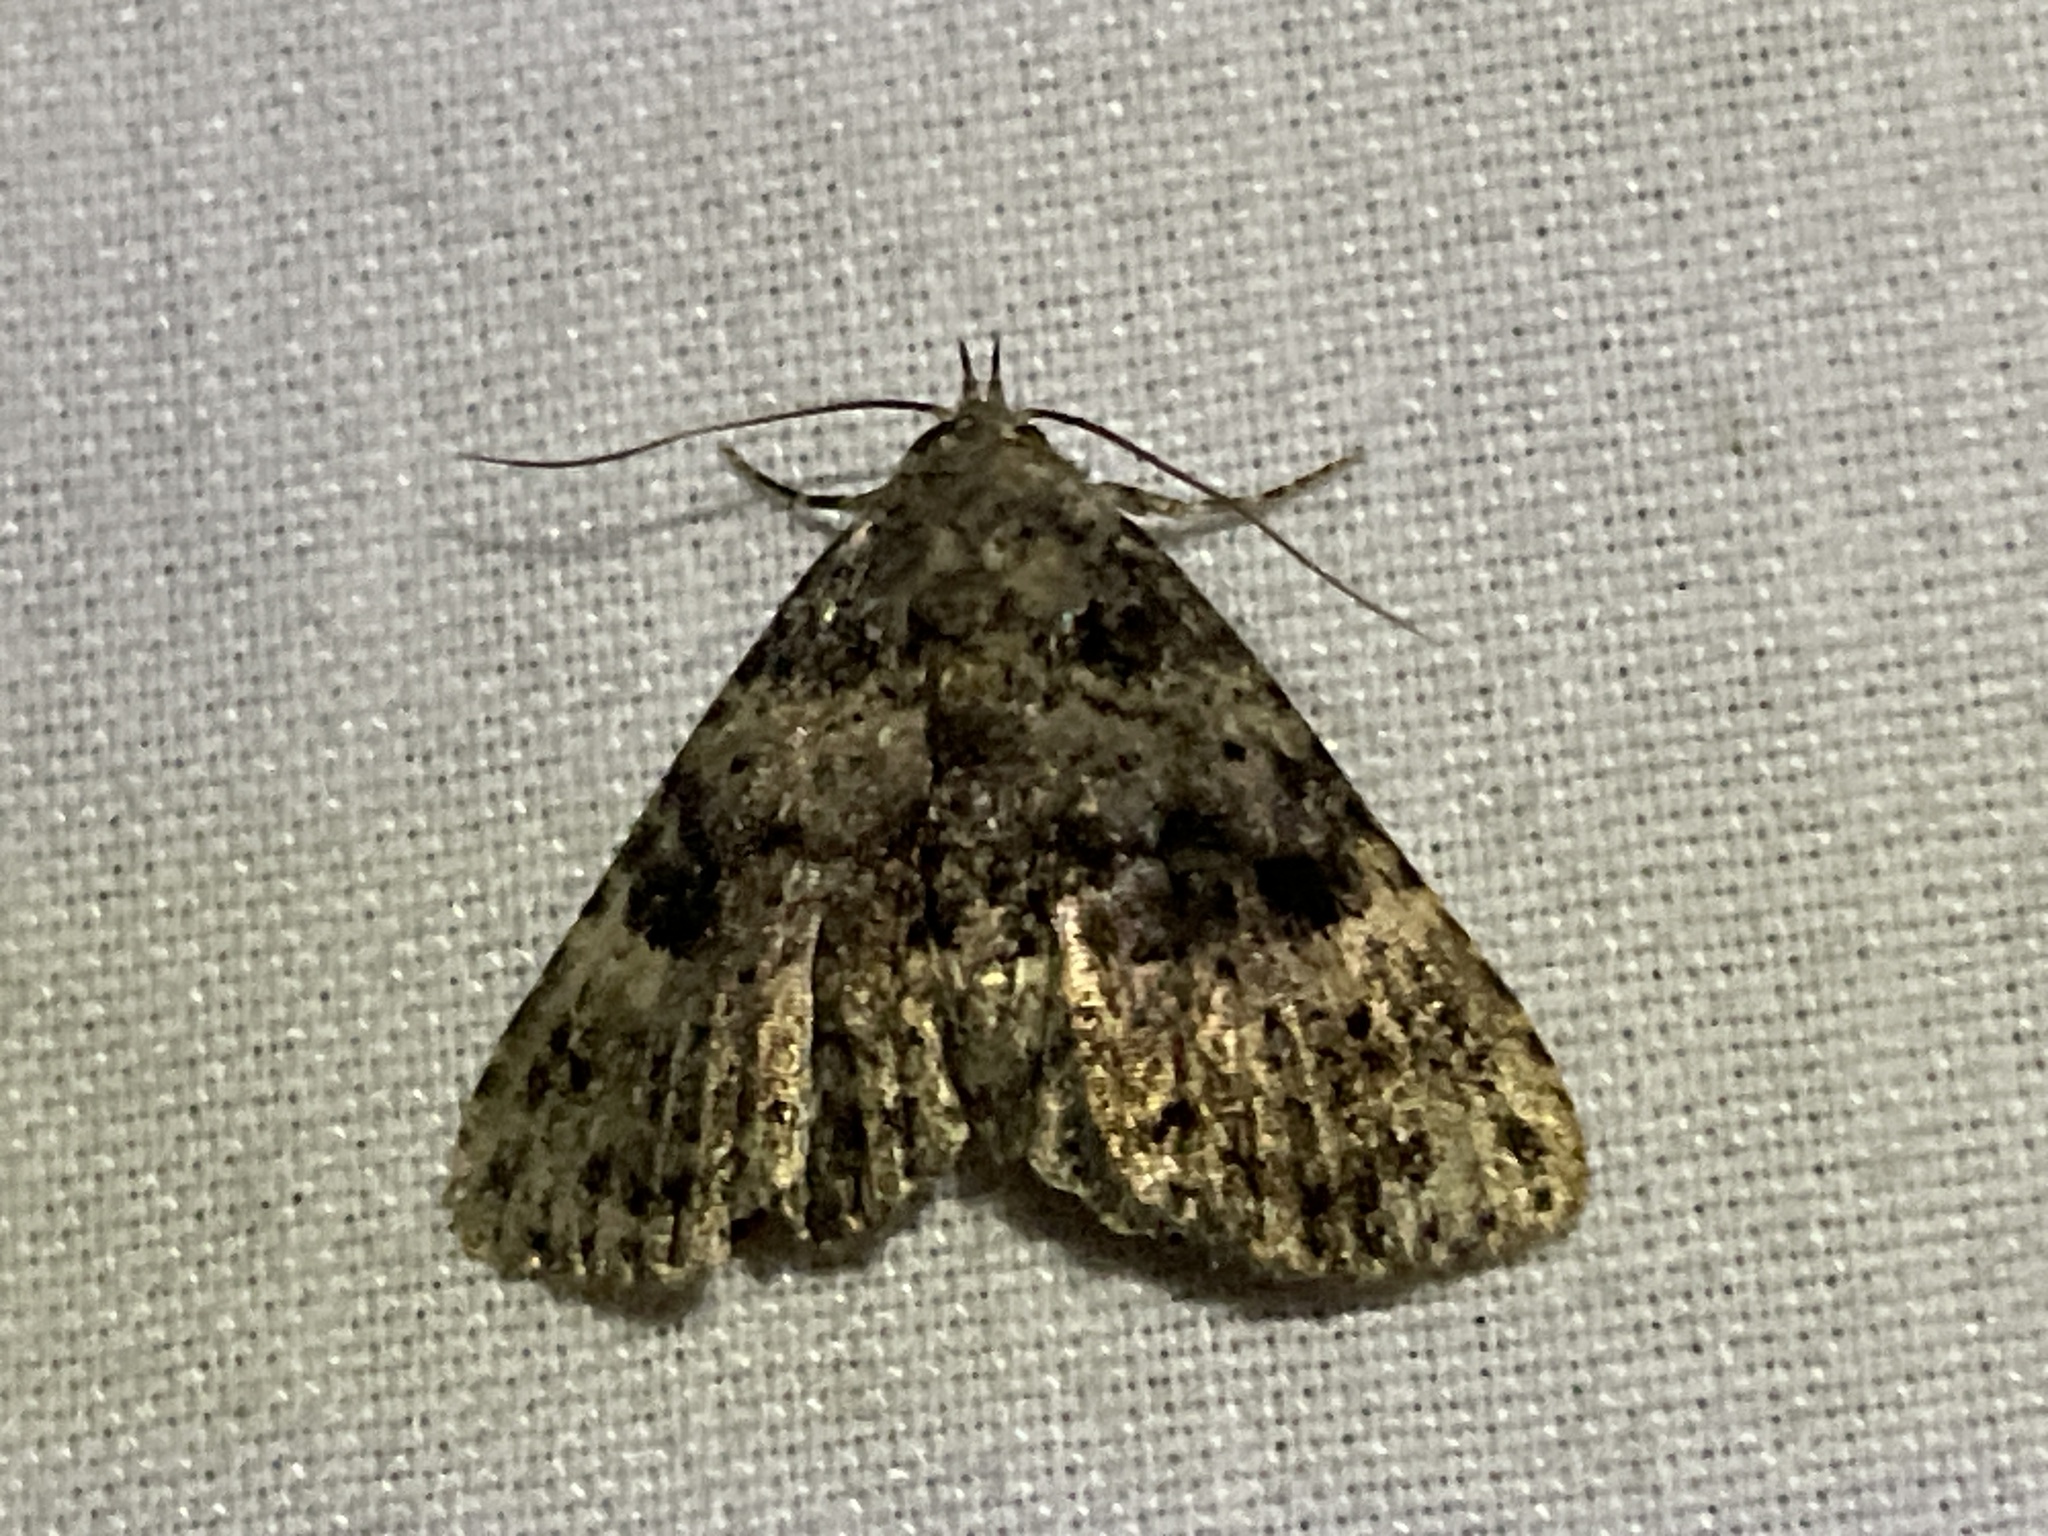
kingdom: Animalia
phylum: Arthropoda
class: Insecta
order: Lepidoptera
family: Erebidae
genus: Metalectra
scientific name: Metalectra discalis
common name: Common fungus moth
